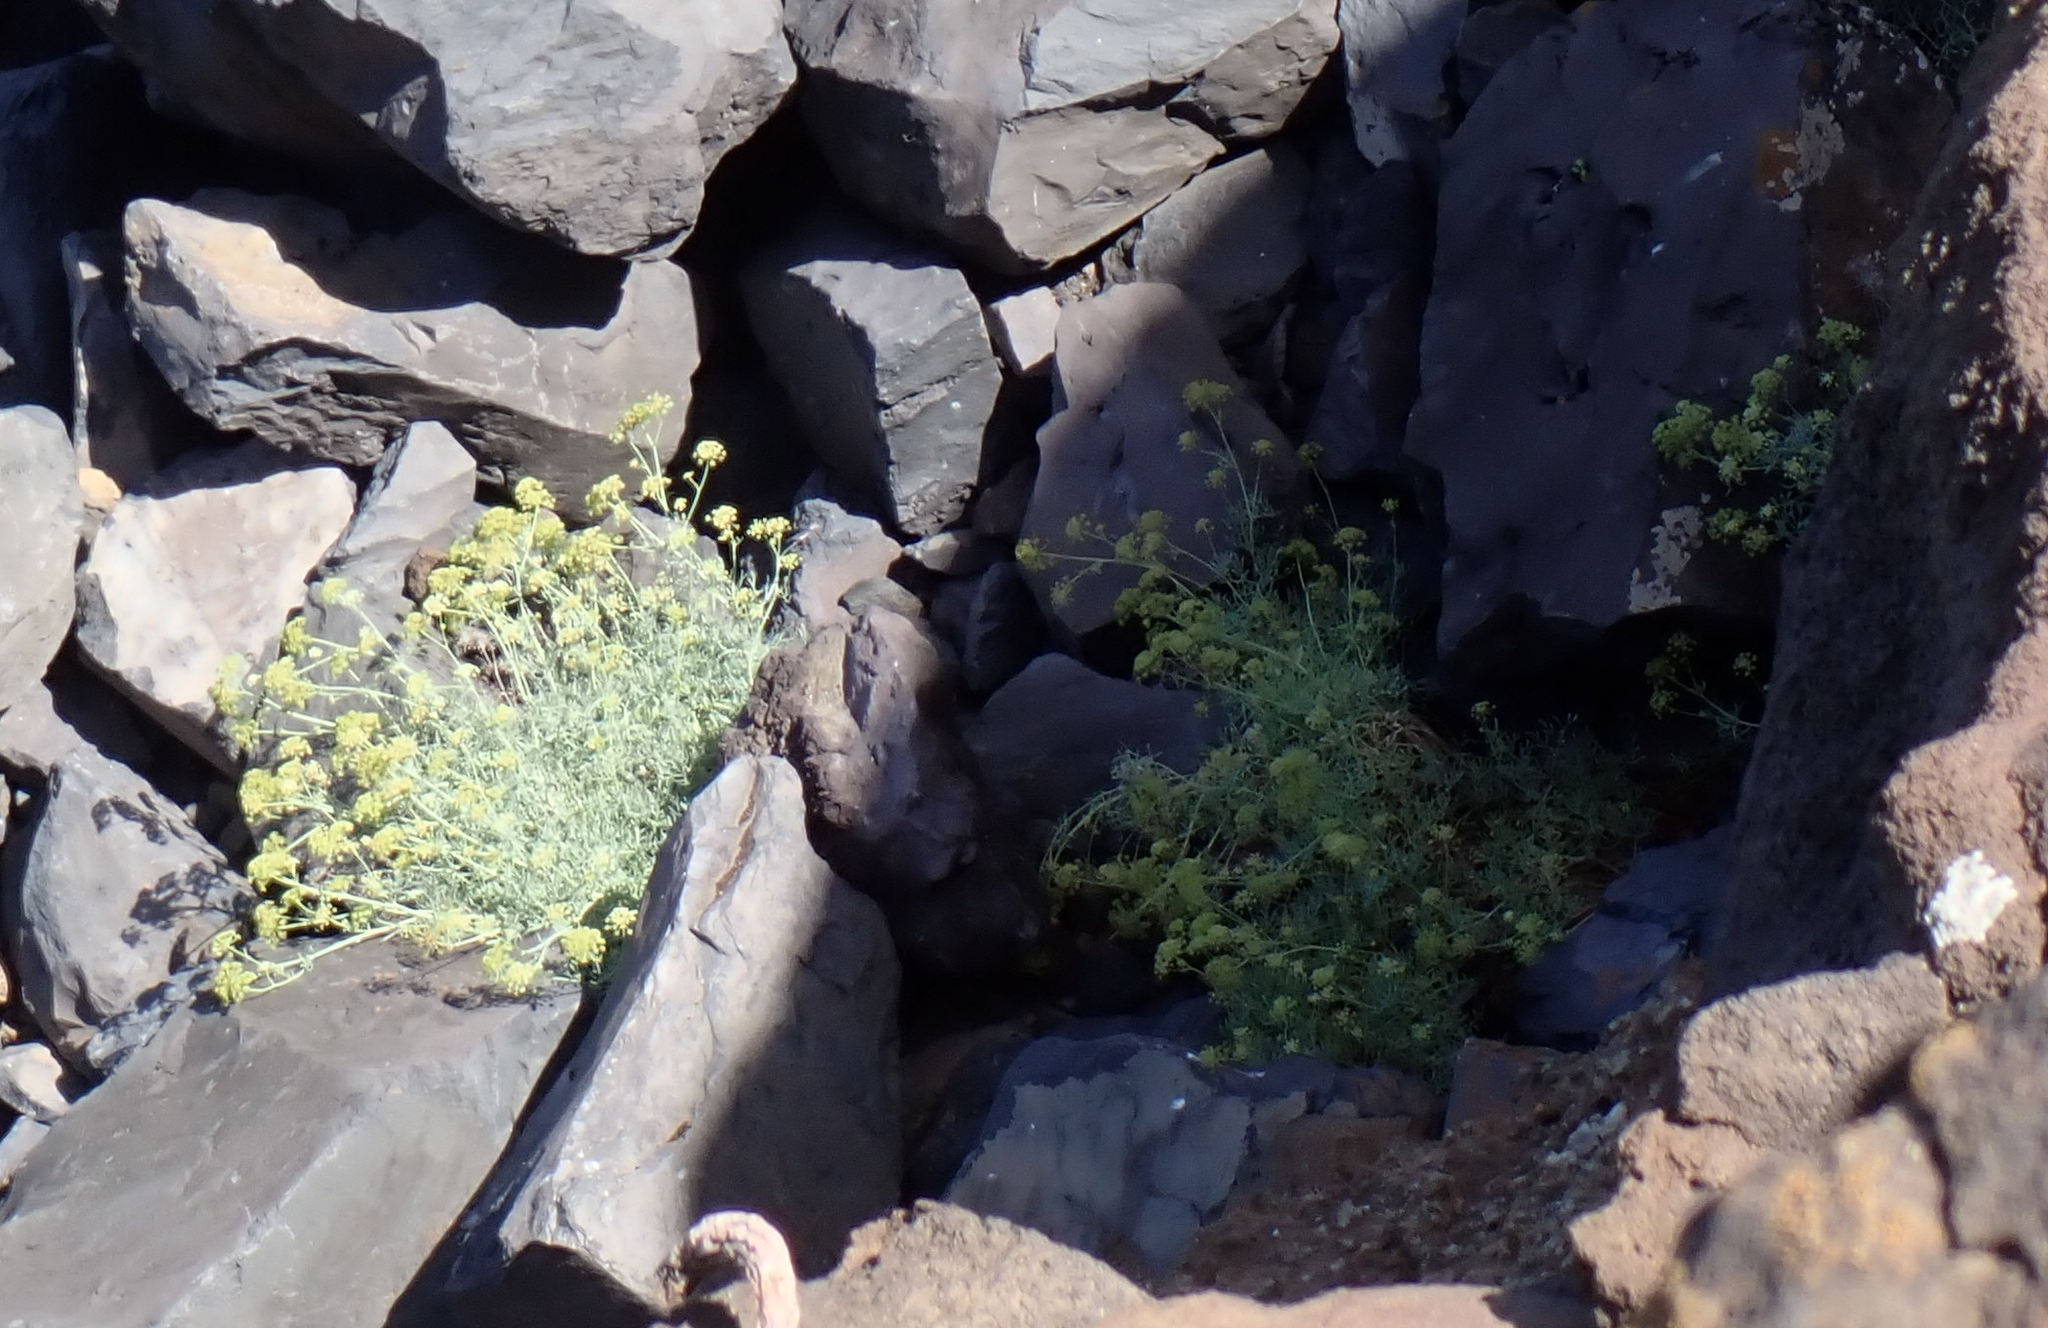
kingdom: Plantae
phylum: Tracheophyta
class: Magnoliopsida
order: Apiales
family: Apiaceae
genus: Crithmum
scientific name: Crithmum maritimum
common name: Rock samphire
